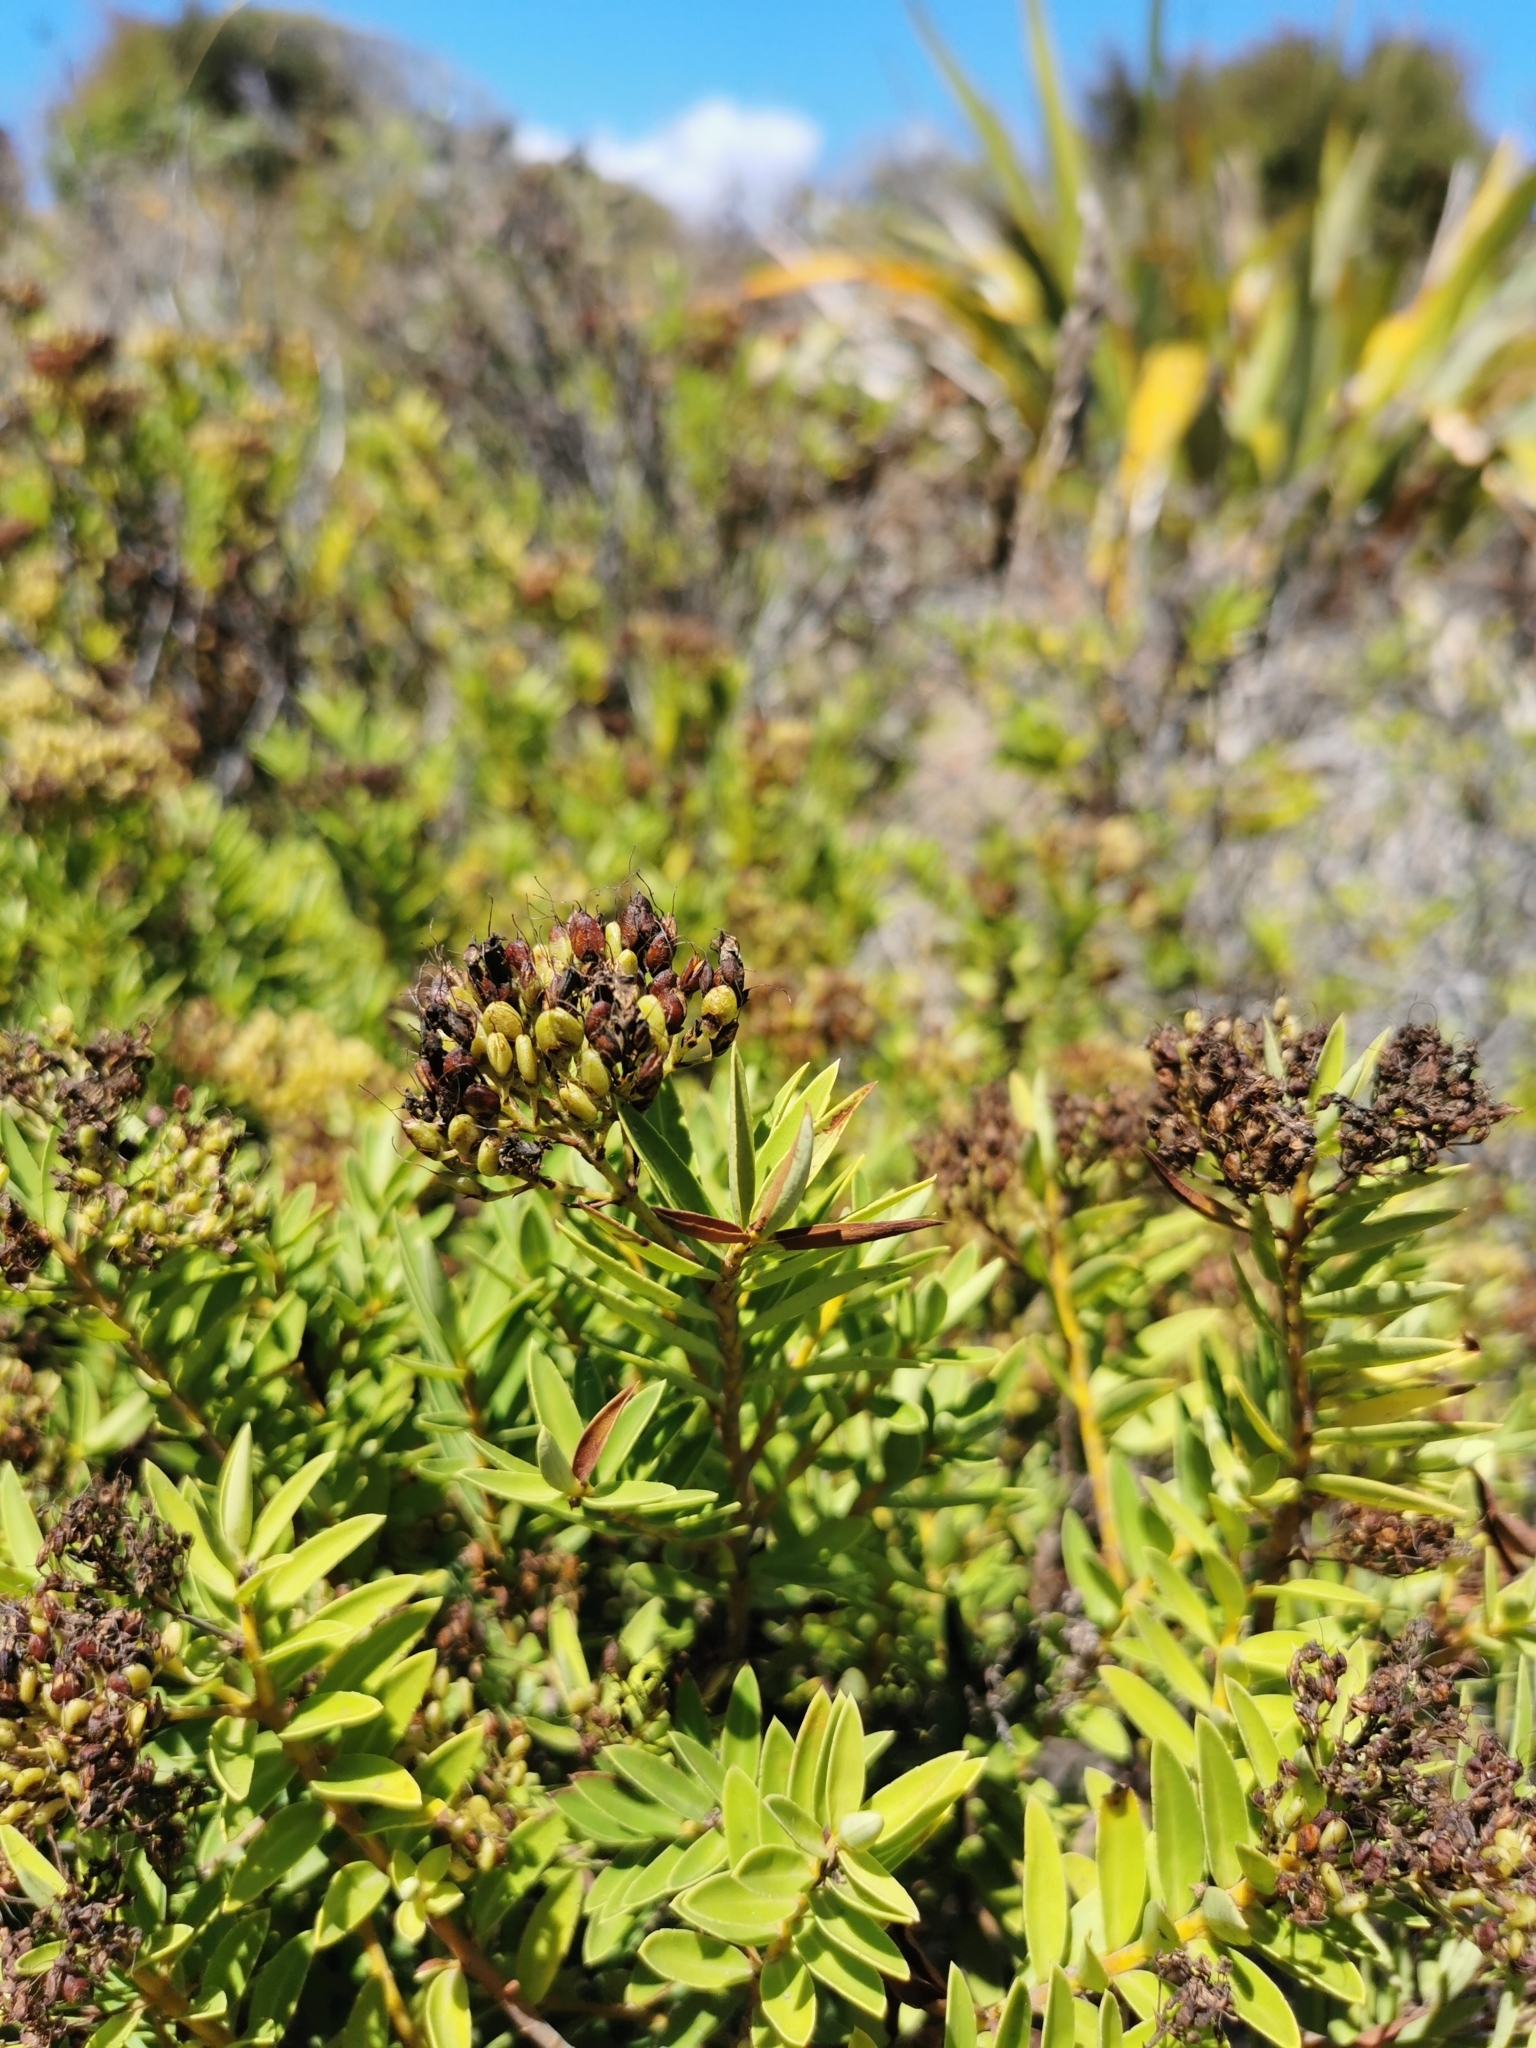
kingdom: Plantae
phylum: Tracheophyta
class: Magnoliopsida
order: Lamiales
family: Plantaginaceae
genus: Veronica
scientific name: Veronica diosmifolia
